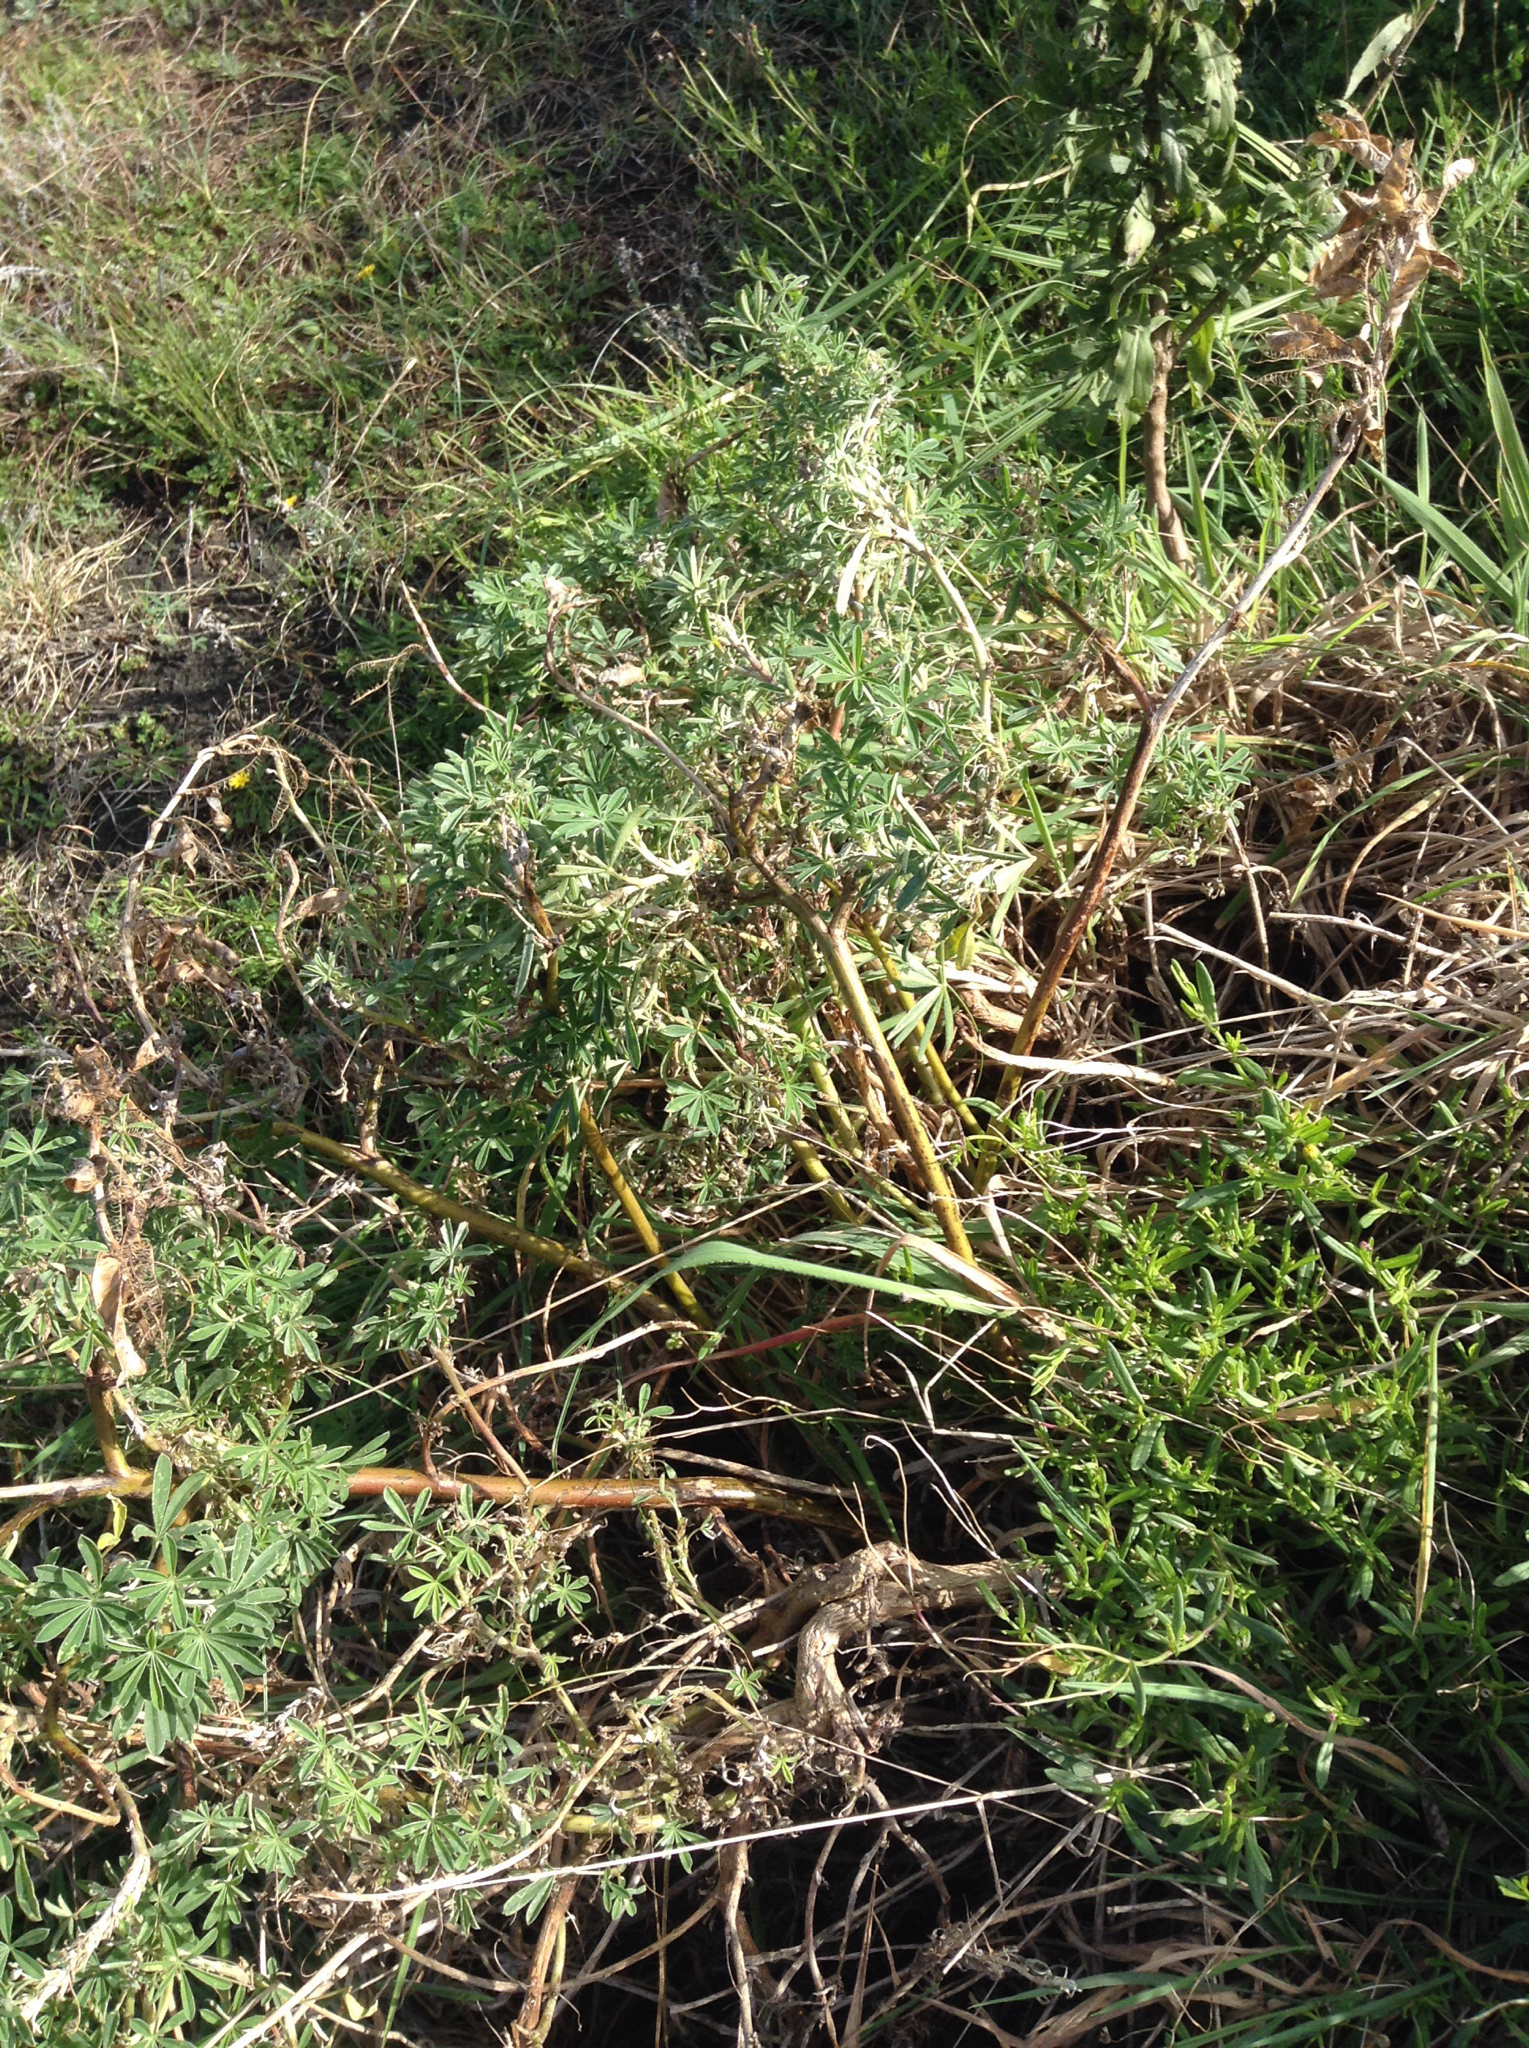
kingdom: Plantae
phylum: Tracheophyta
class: Magnoliopsida
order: Fabales
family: Fabaceae
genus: Lupinus
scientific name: Lupinus arboreus
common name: Yellow bush lupine
